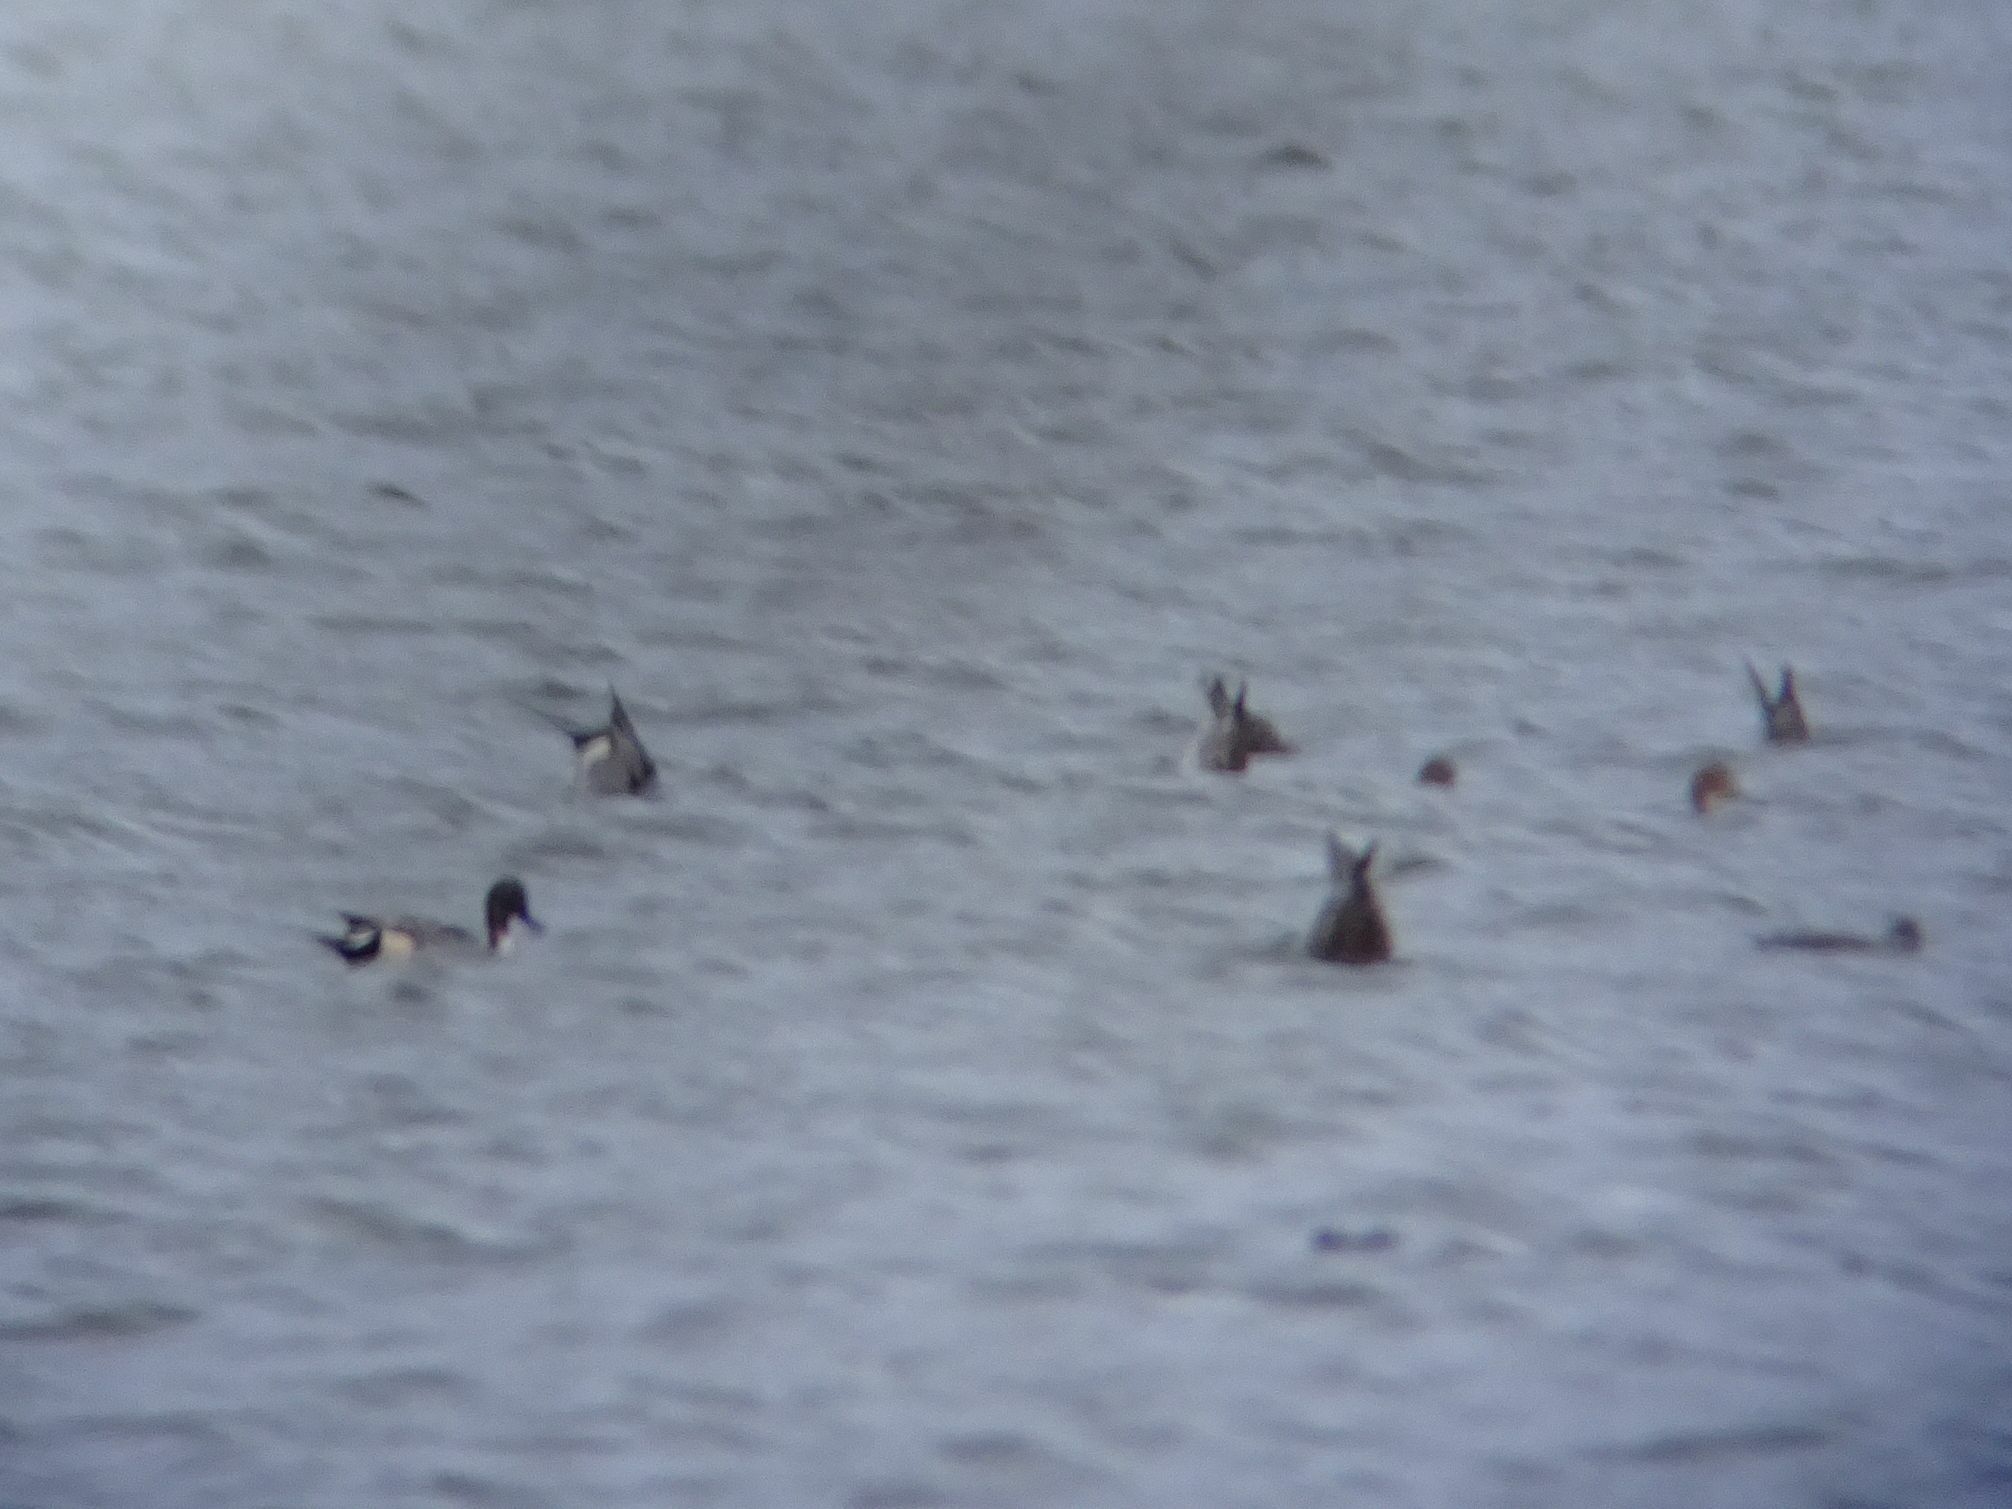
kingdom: Animalia
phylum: Chordata
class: Aves
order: Anseriformes
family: Anatidae
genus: Anas
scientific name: Anas acuta
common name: Northern pintail
